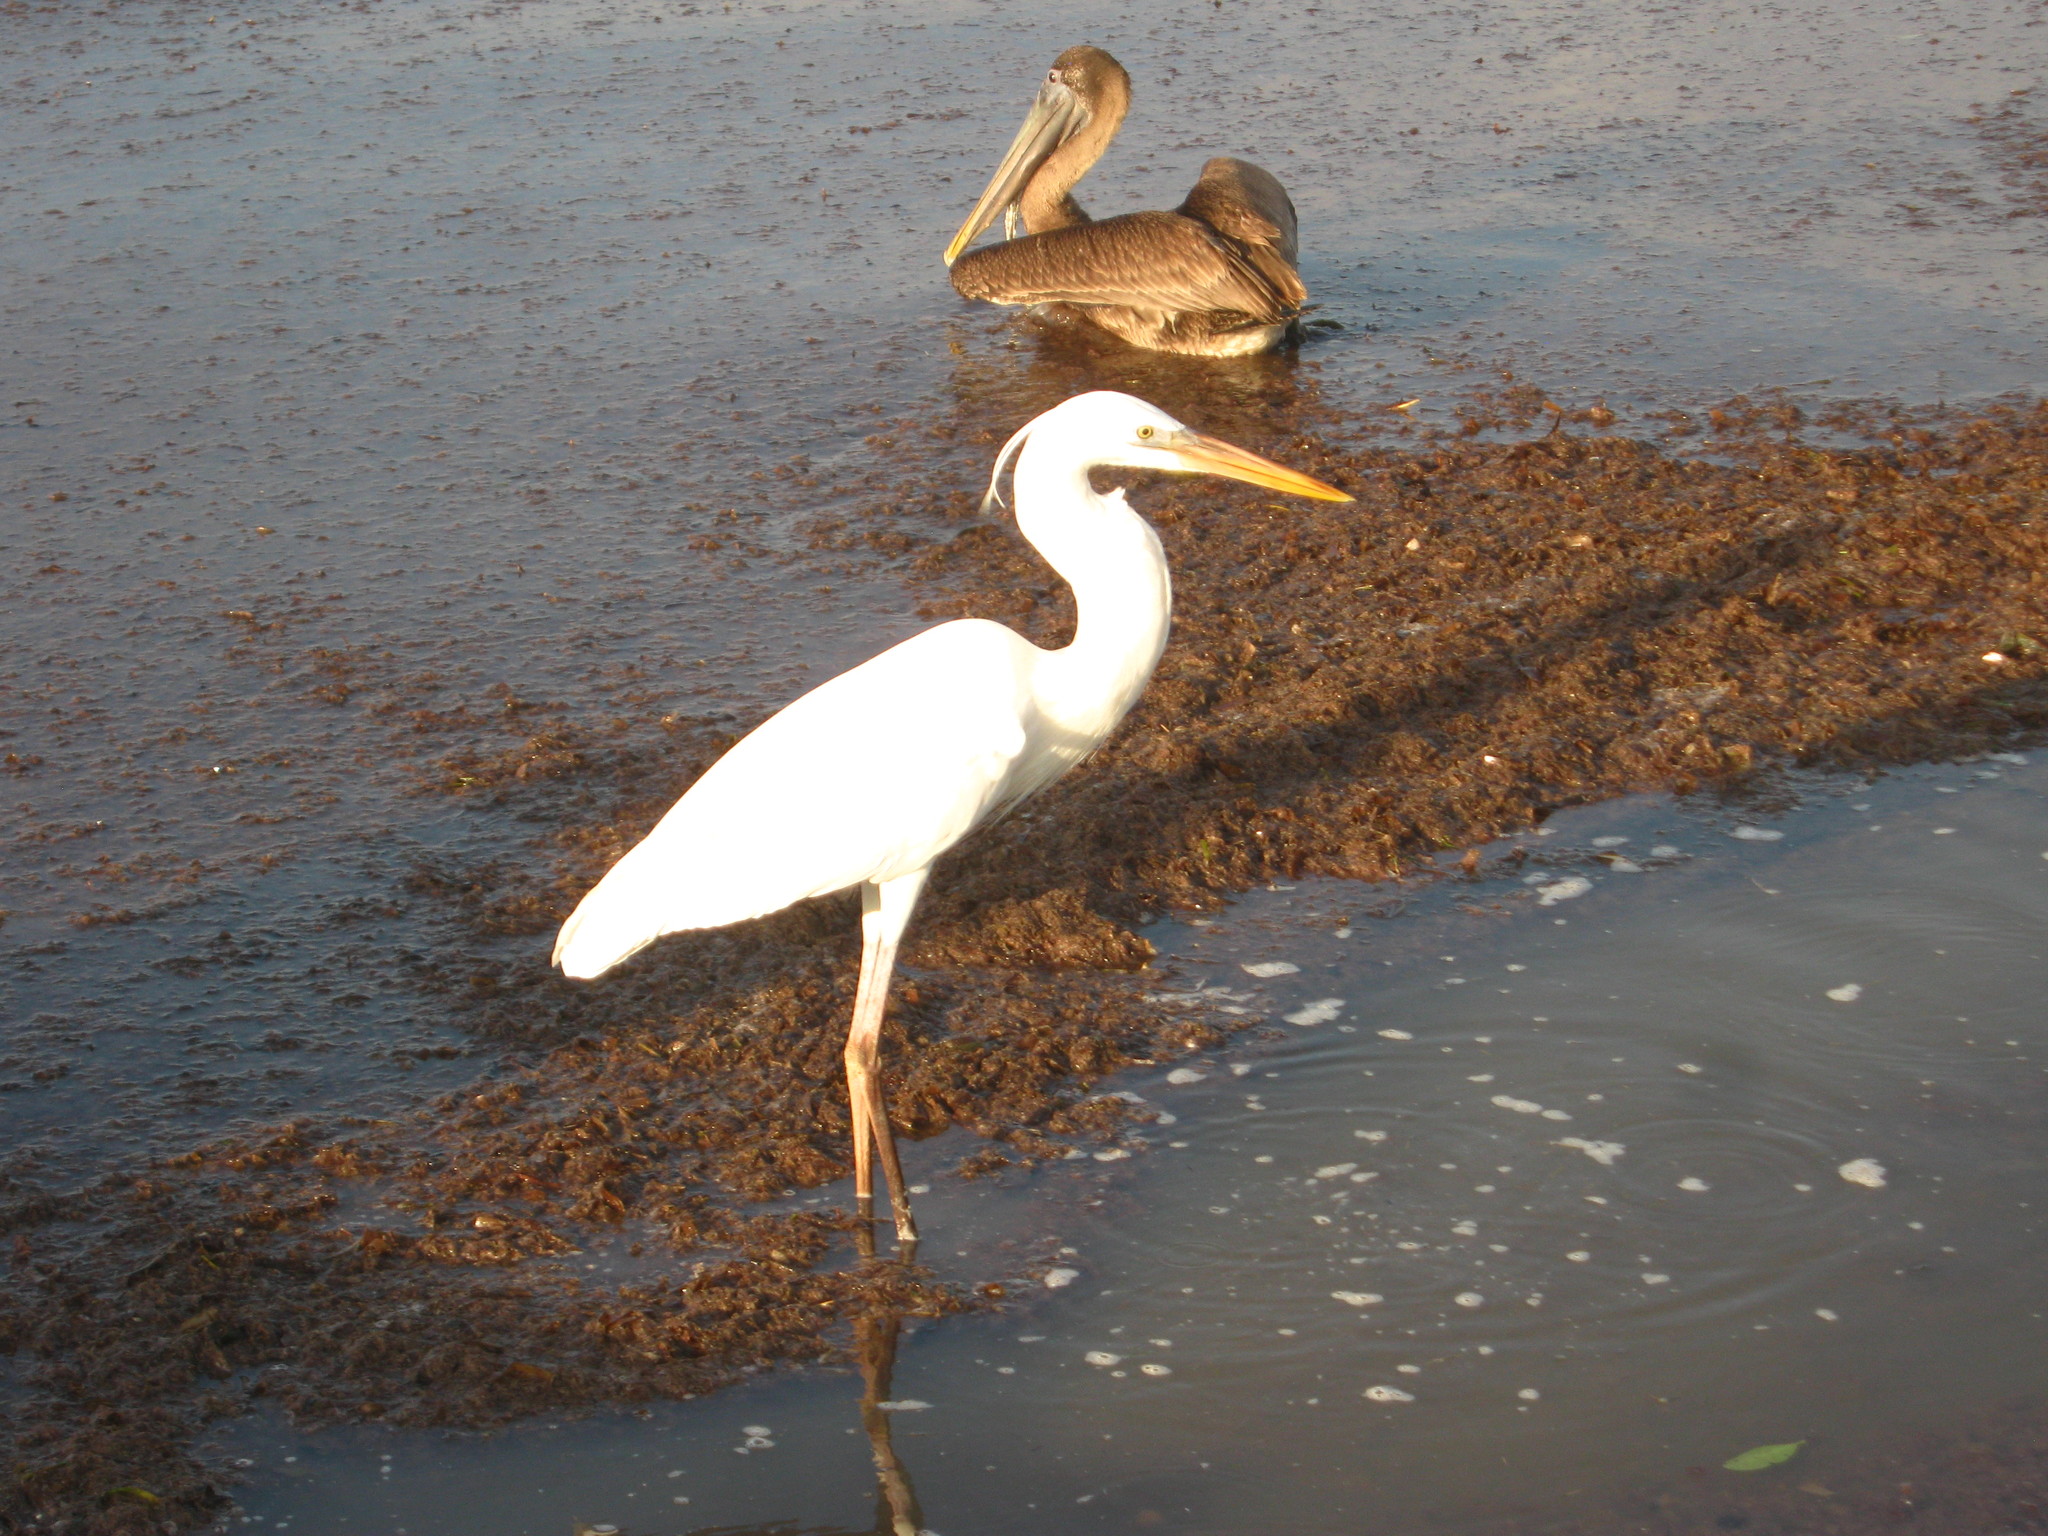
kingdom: Animalia
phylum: Chordata
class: Aves
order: Pelecaniformes
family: Ardeidae
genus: Ardea
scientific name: Ardea herodias
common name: Great blue heron
